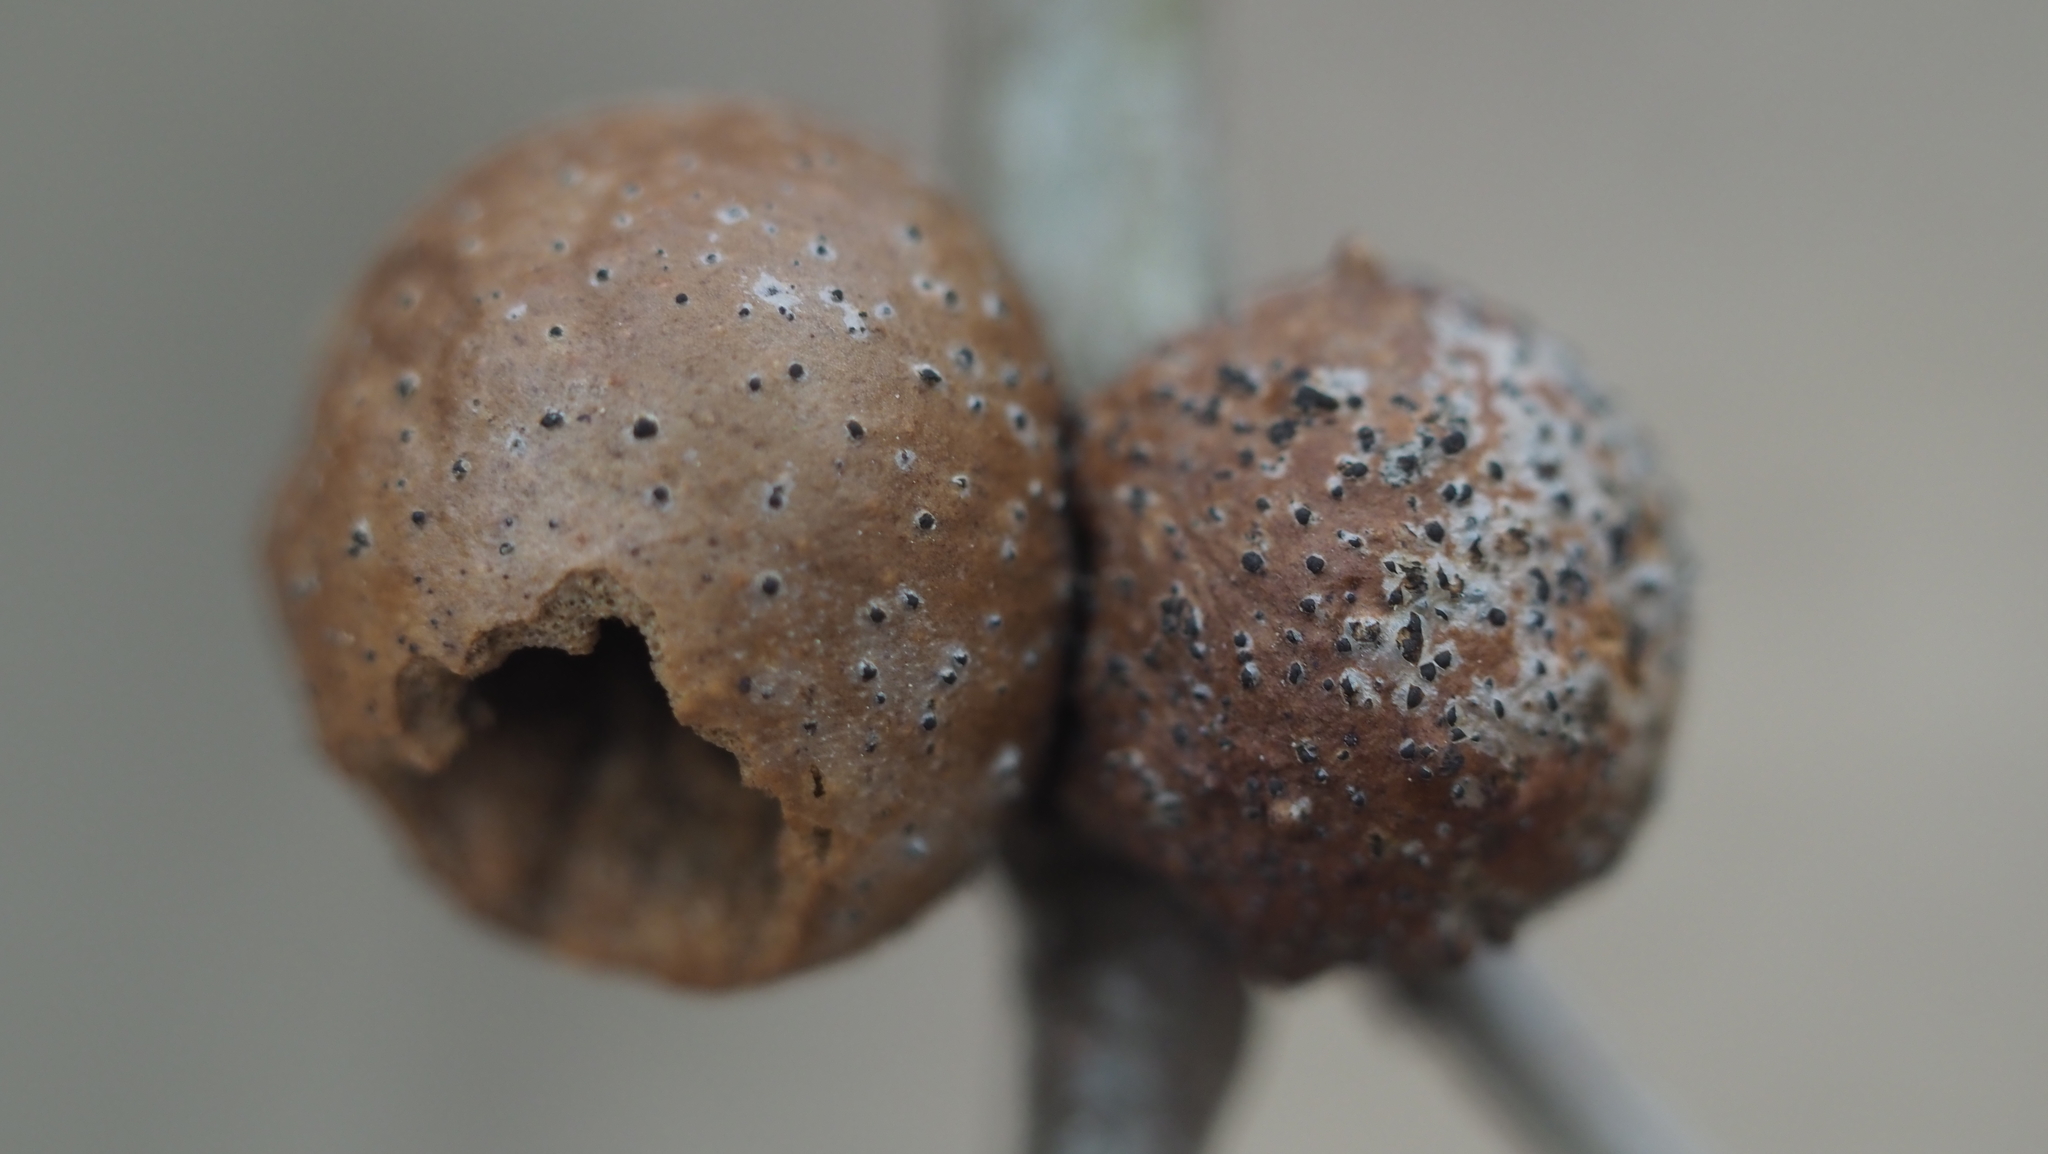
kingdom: Animalia
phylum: Arthropoda
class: Insecta
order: Hymenoptera
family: Cynipidae
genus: Disholcaspis
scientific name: Disholcaspis quercusglobulus
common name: Round bullet gall wasp
